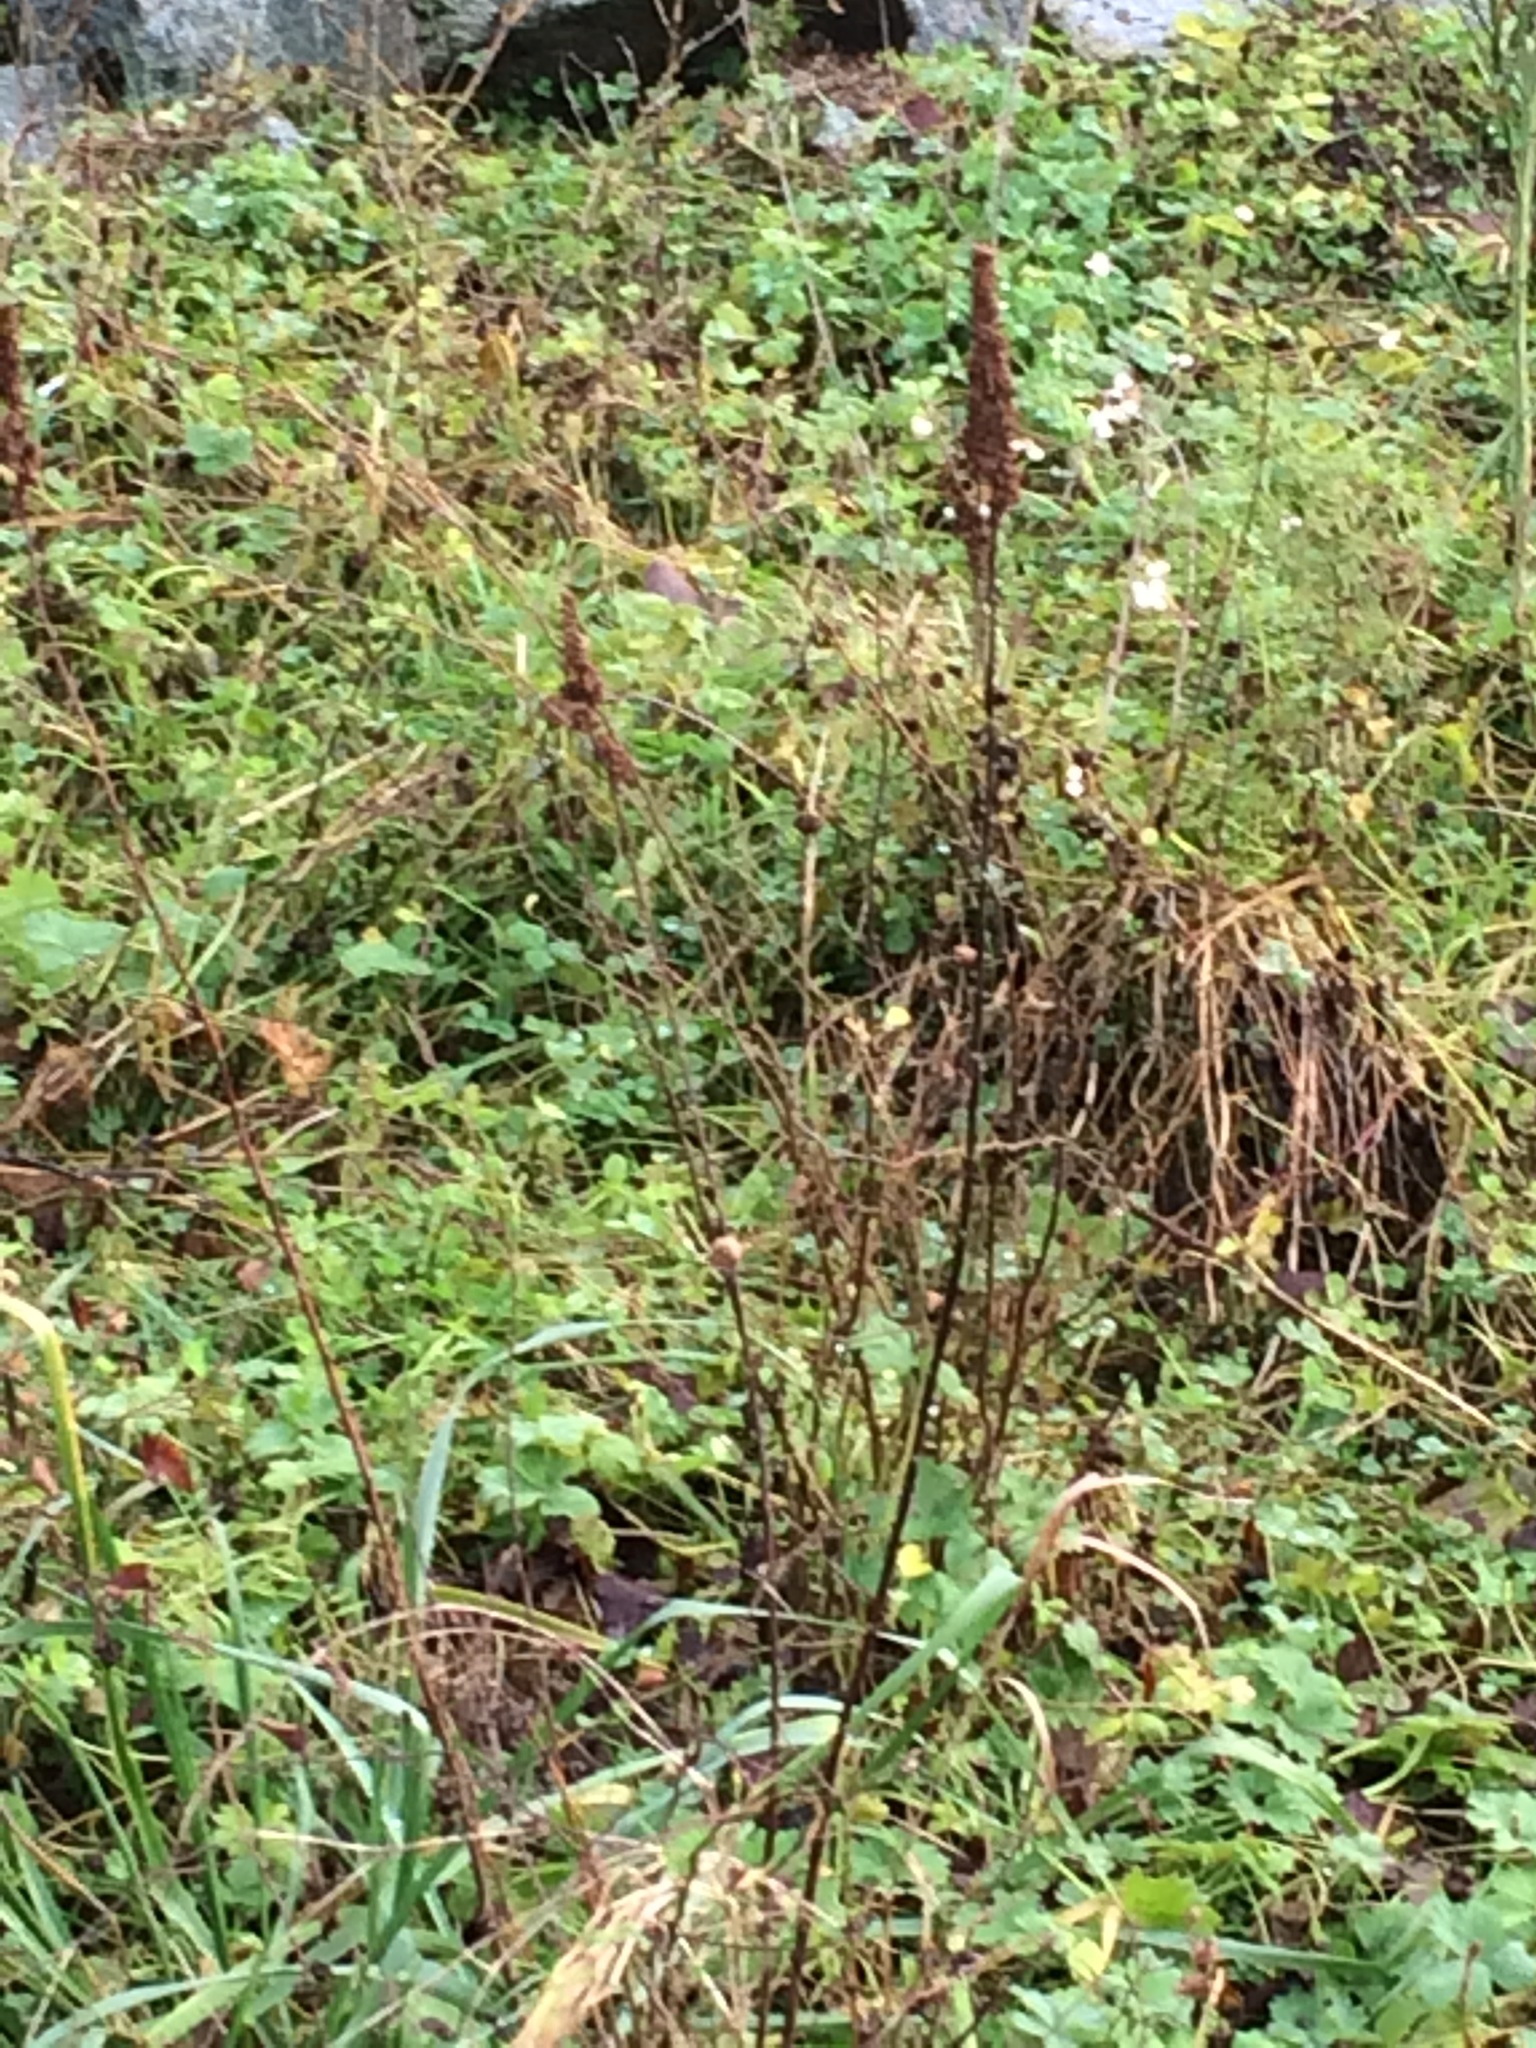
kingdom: Plantae
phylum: Tracheophyta
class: Magnoliopsida
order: Rosales
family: Rosaceae
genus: Spiraea
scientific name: Spiraea douglasii
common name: Steeplebush
